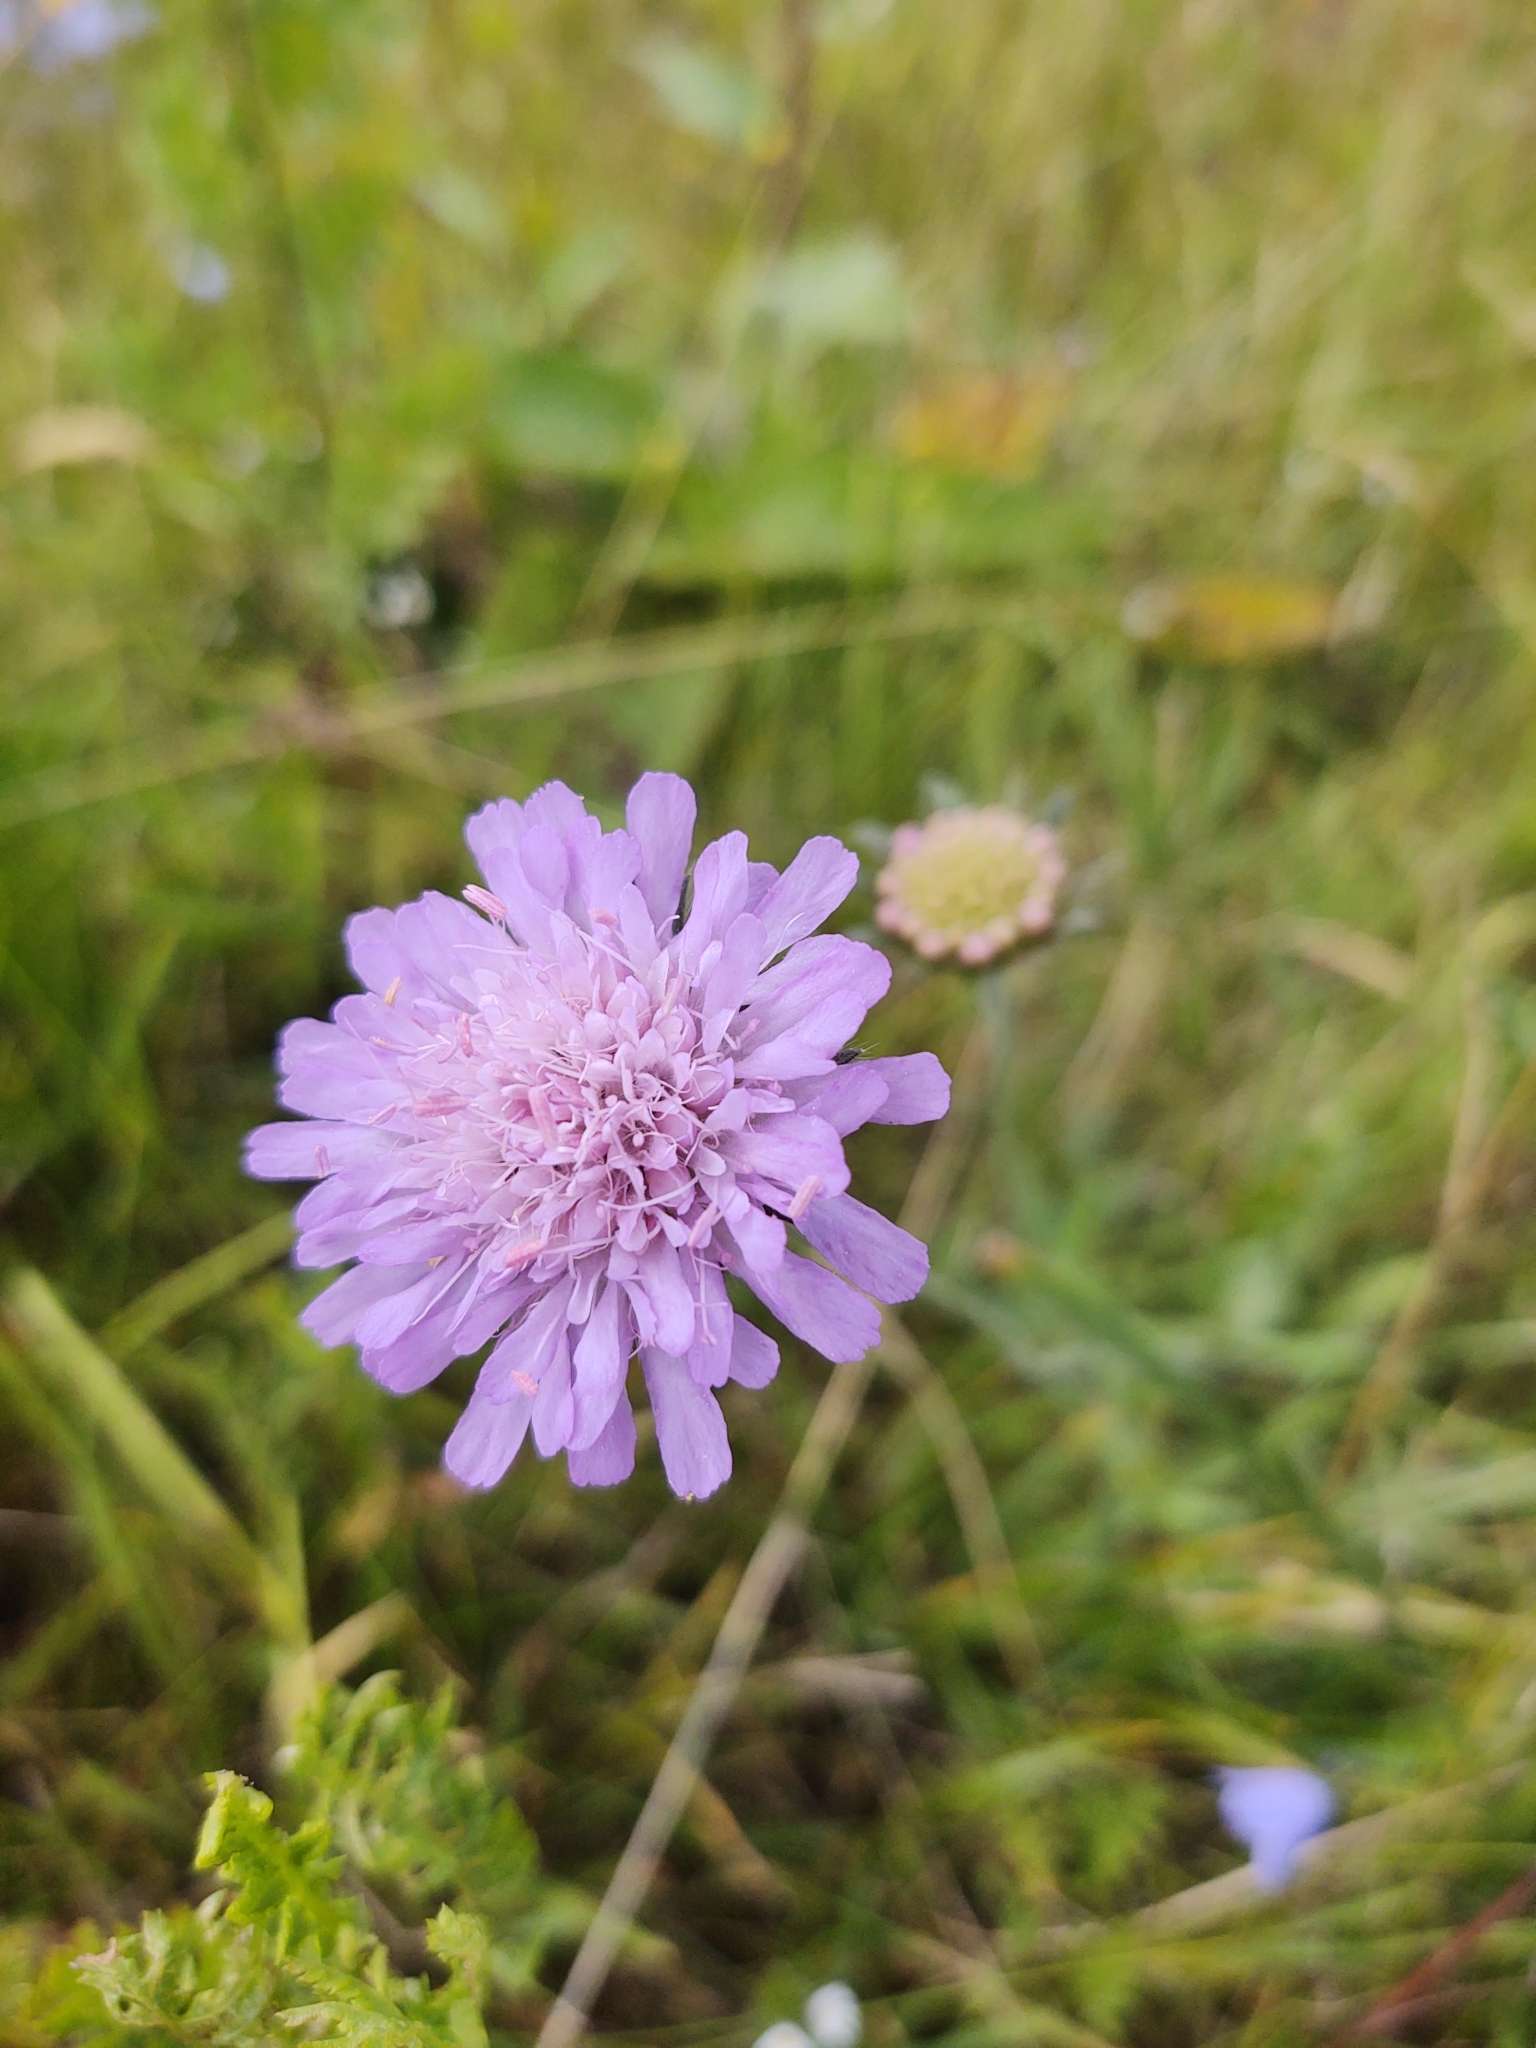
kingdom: Plantae
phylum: Tracheophyta
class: Magnoliopsida
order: Dipsacales
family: Caprifoliaceae
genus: Knautia
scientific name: Knautia arvensis
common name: Field scabiosa
